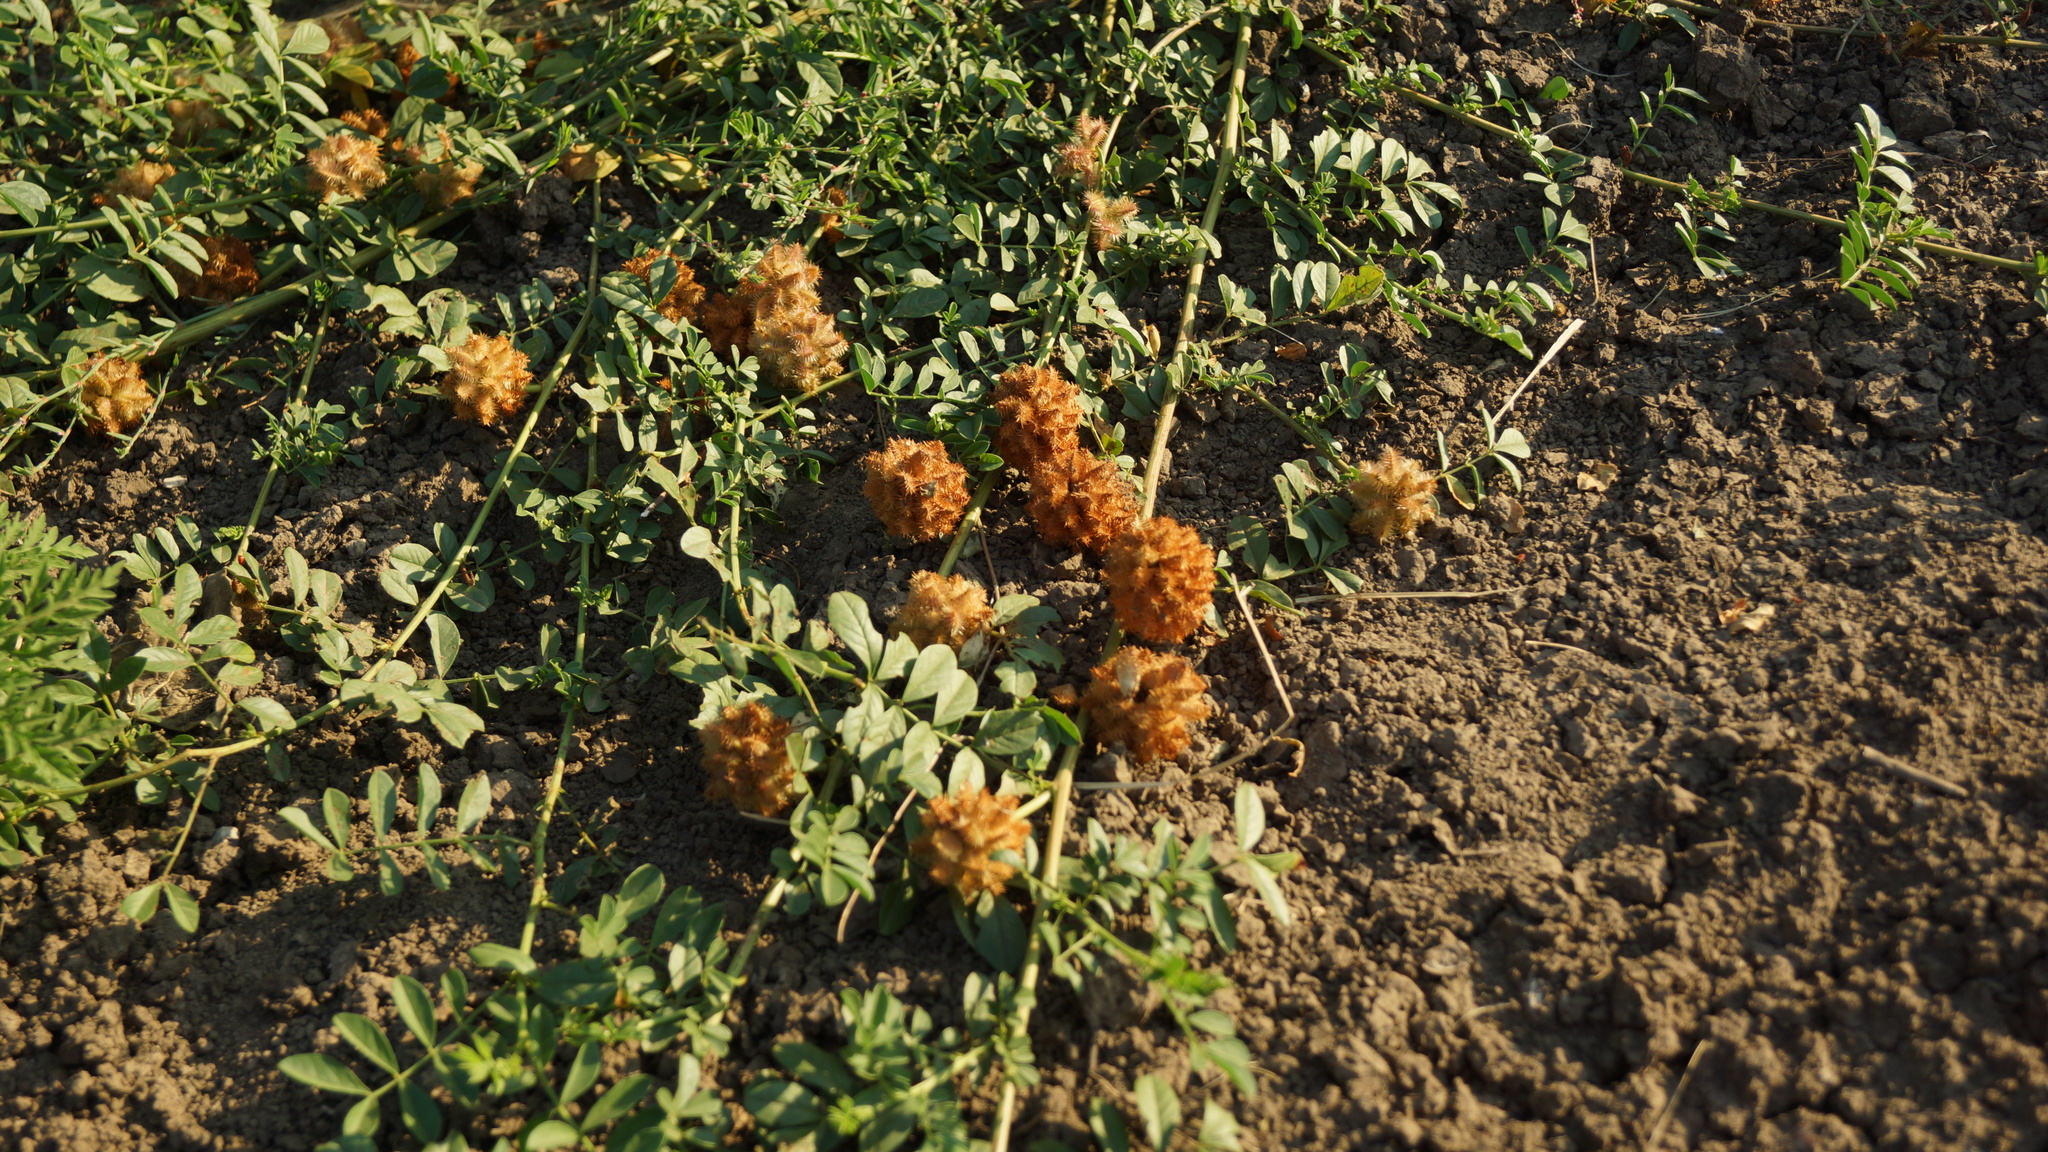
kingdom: Plantae
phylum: Tracheophyta
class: Magnoliopsida
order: Fabales
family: Fabaceae
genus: Glycyrrhiza
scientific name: Glycyrrhiza echinata
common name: German liquorice
